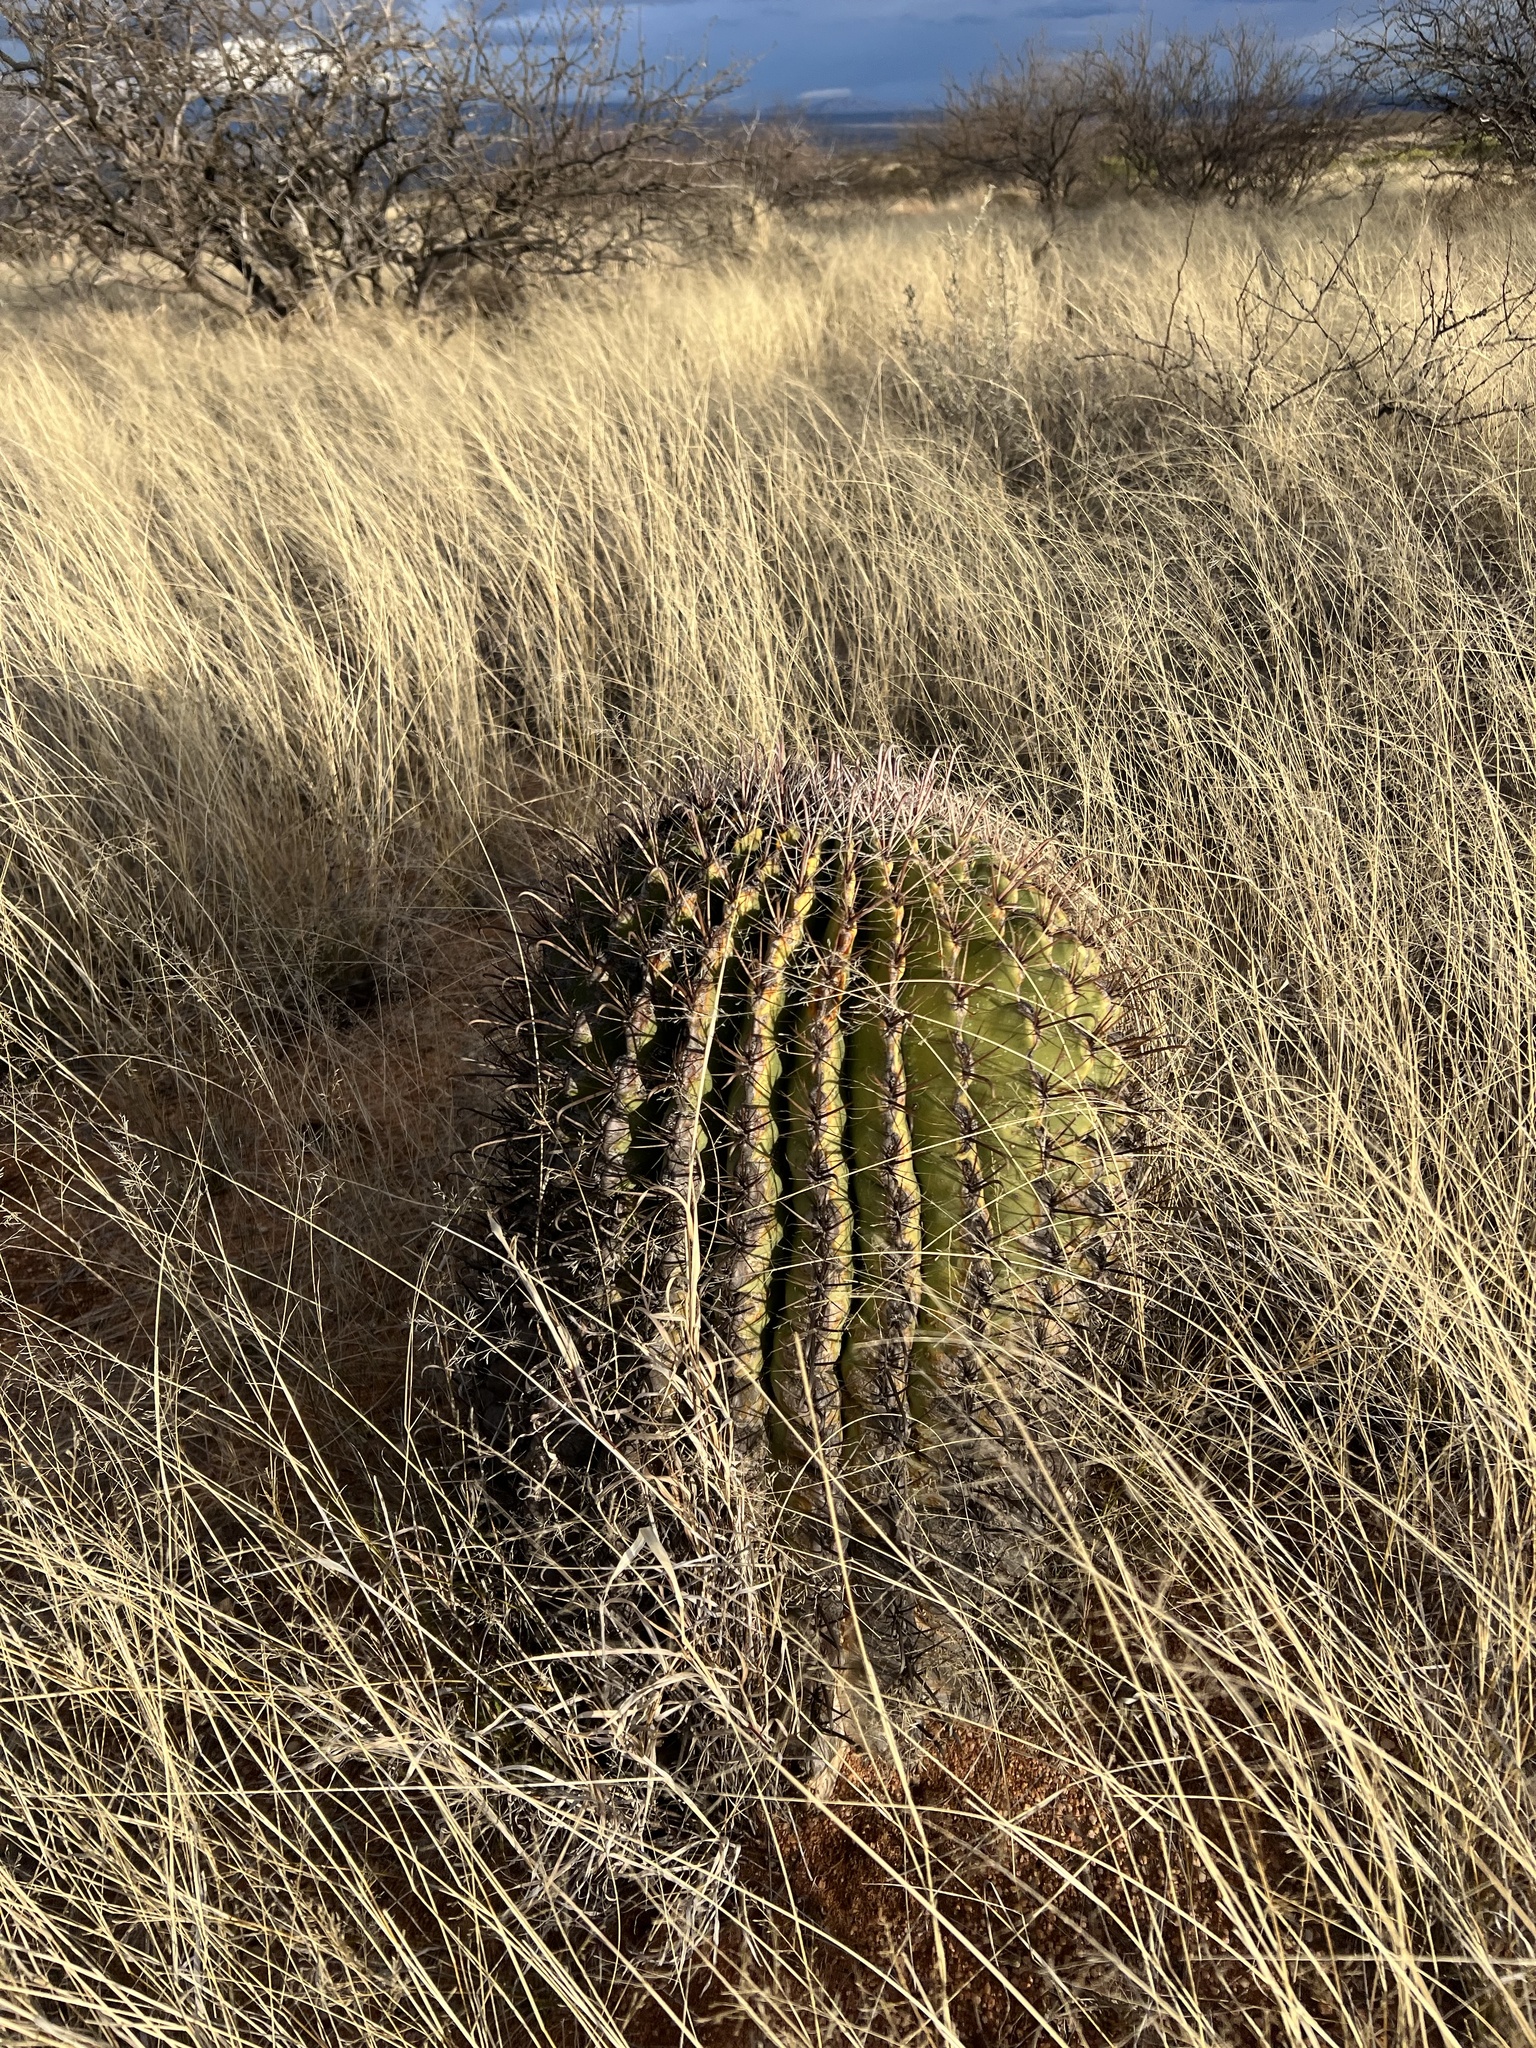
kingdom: Plantae
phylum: Tracheophyta
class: Magnoliopsida
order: Caryophyllales
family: Cactaceae
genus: Ferocactus
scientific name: Ferocactus wislizeni
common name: Candy barrel cactus
